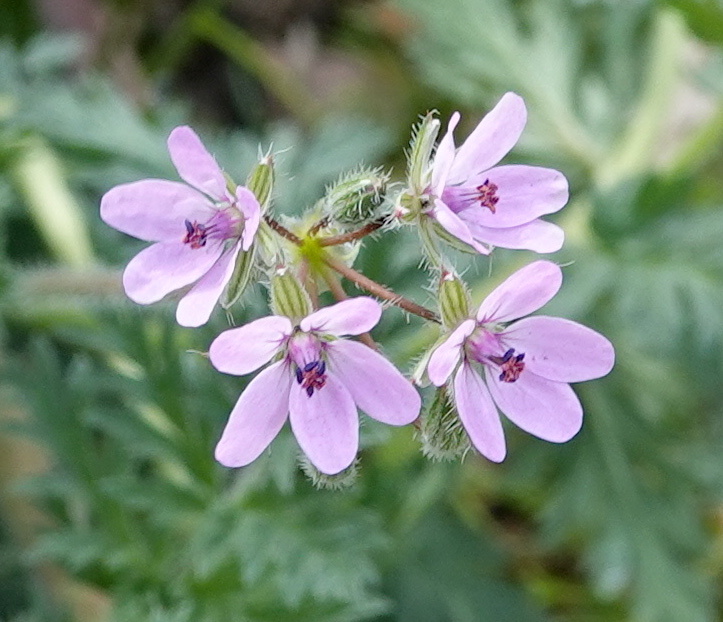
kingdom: Plantae
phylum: Tracheophyta
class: Magnoliopsida
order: Geraniales
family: Geraniaceae
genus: Erodium
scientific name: Erodium cicutarium
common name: Common stork's-bill
